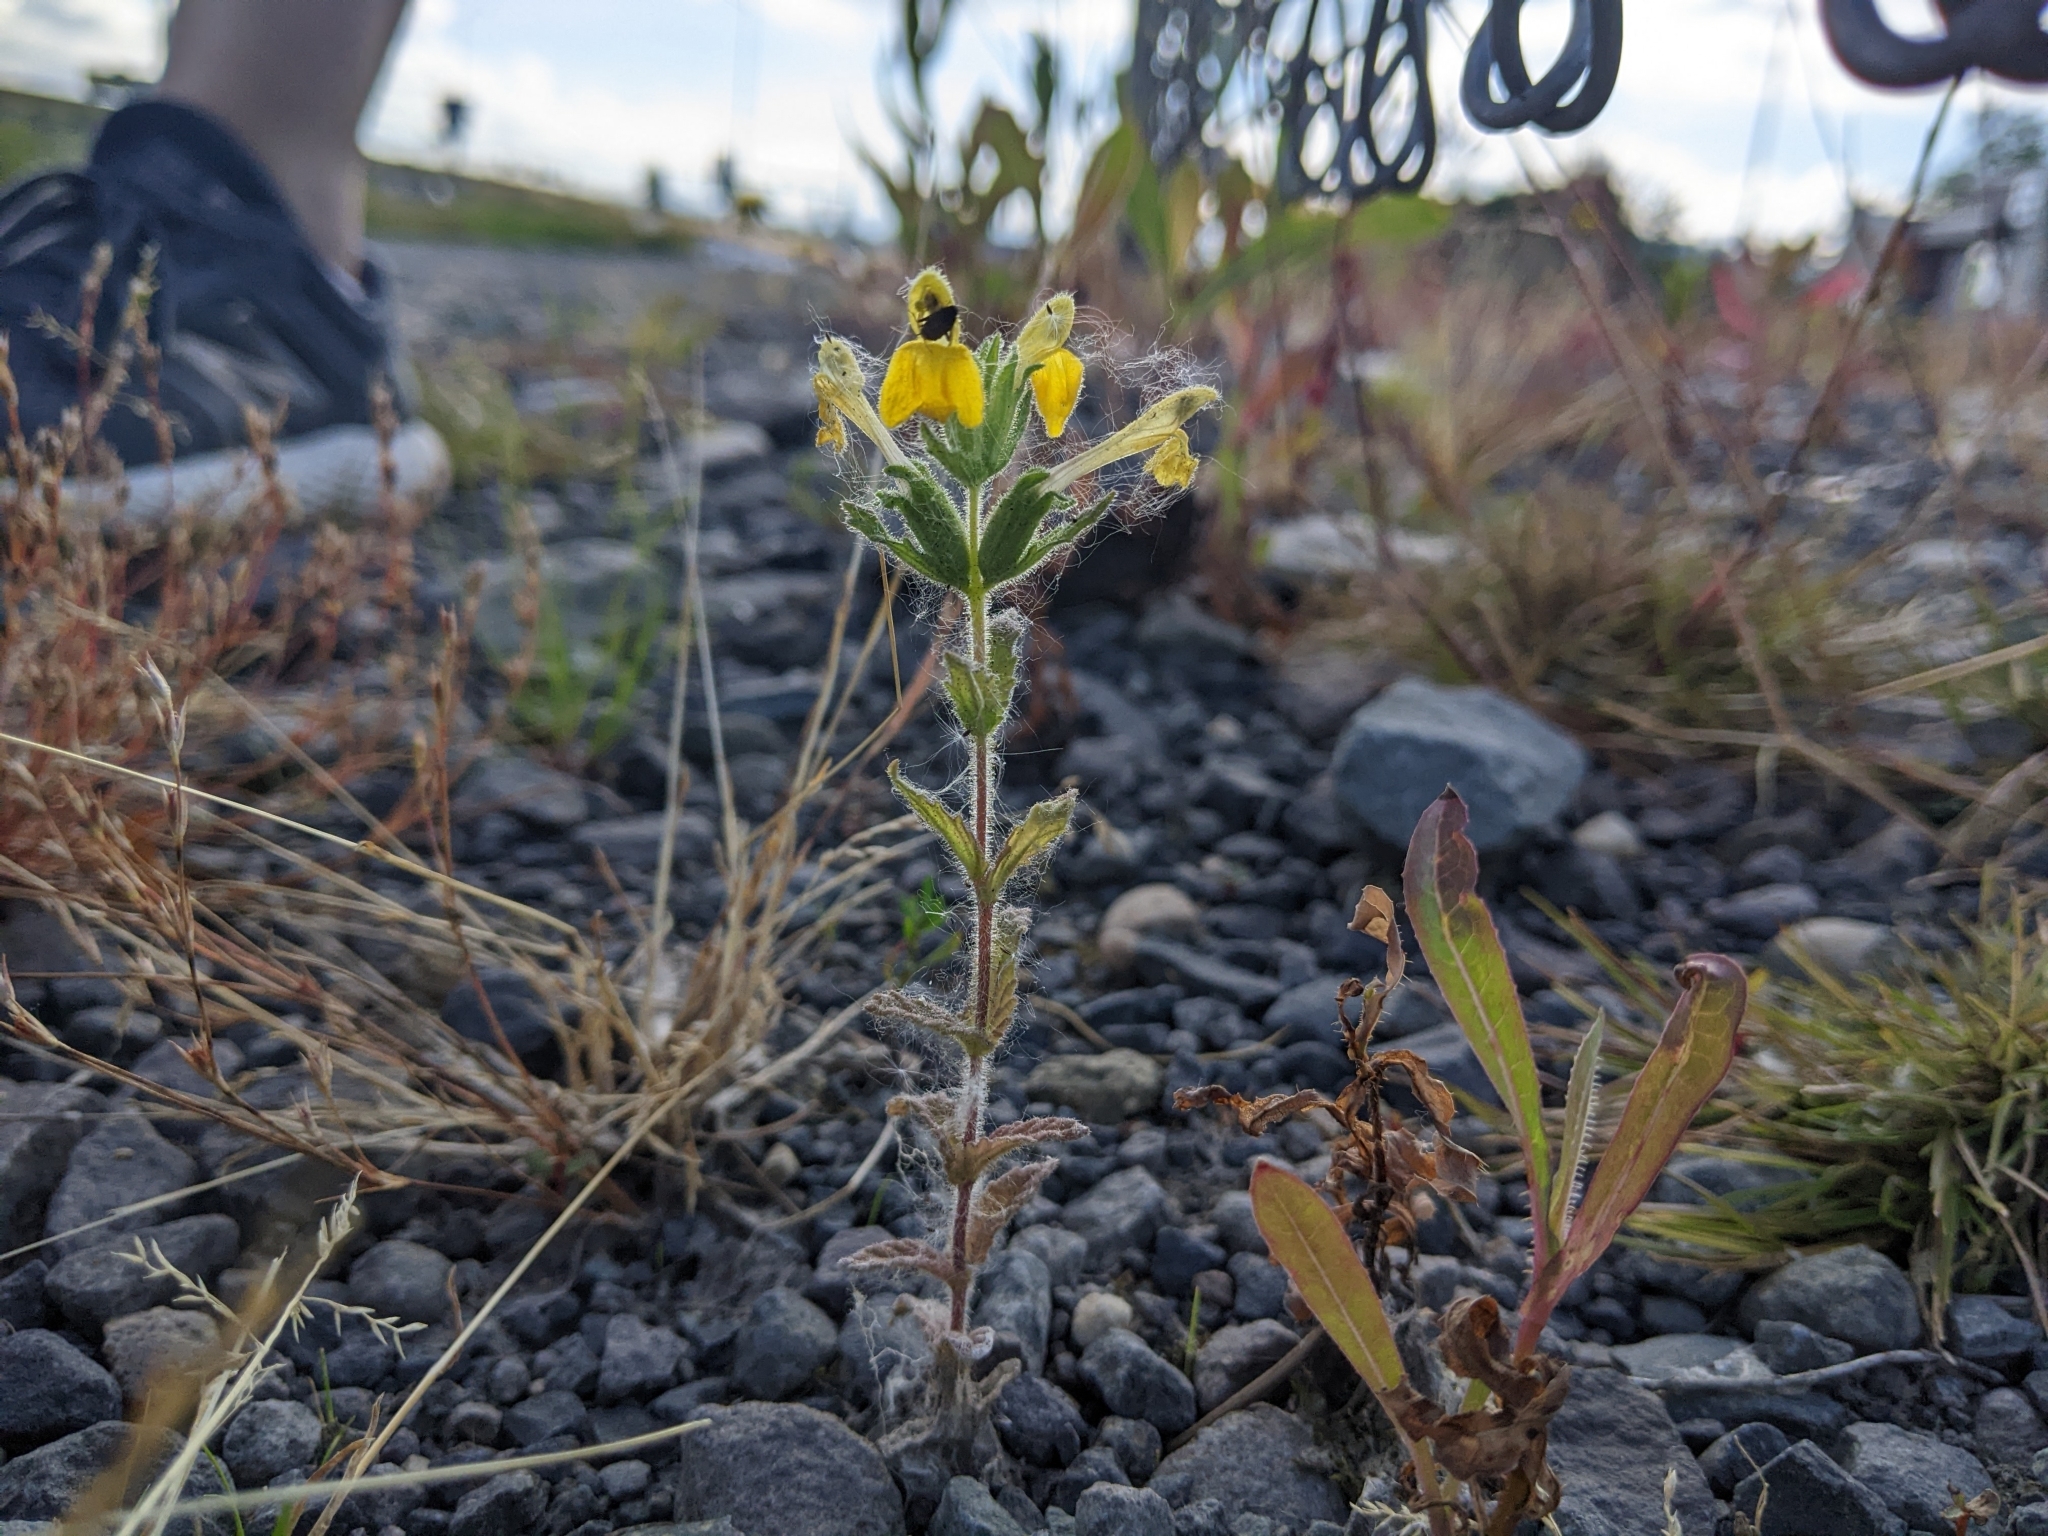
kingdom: Plantae
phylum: Tracheophyta
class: Magnoliopsida
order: Lamiales
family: Orobanchaceae
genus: Bellardia
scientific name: Bellardia viscosa
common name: Sticky parentucellia
